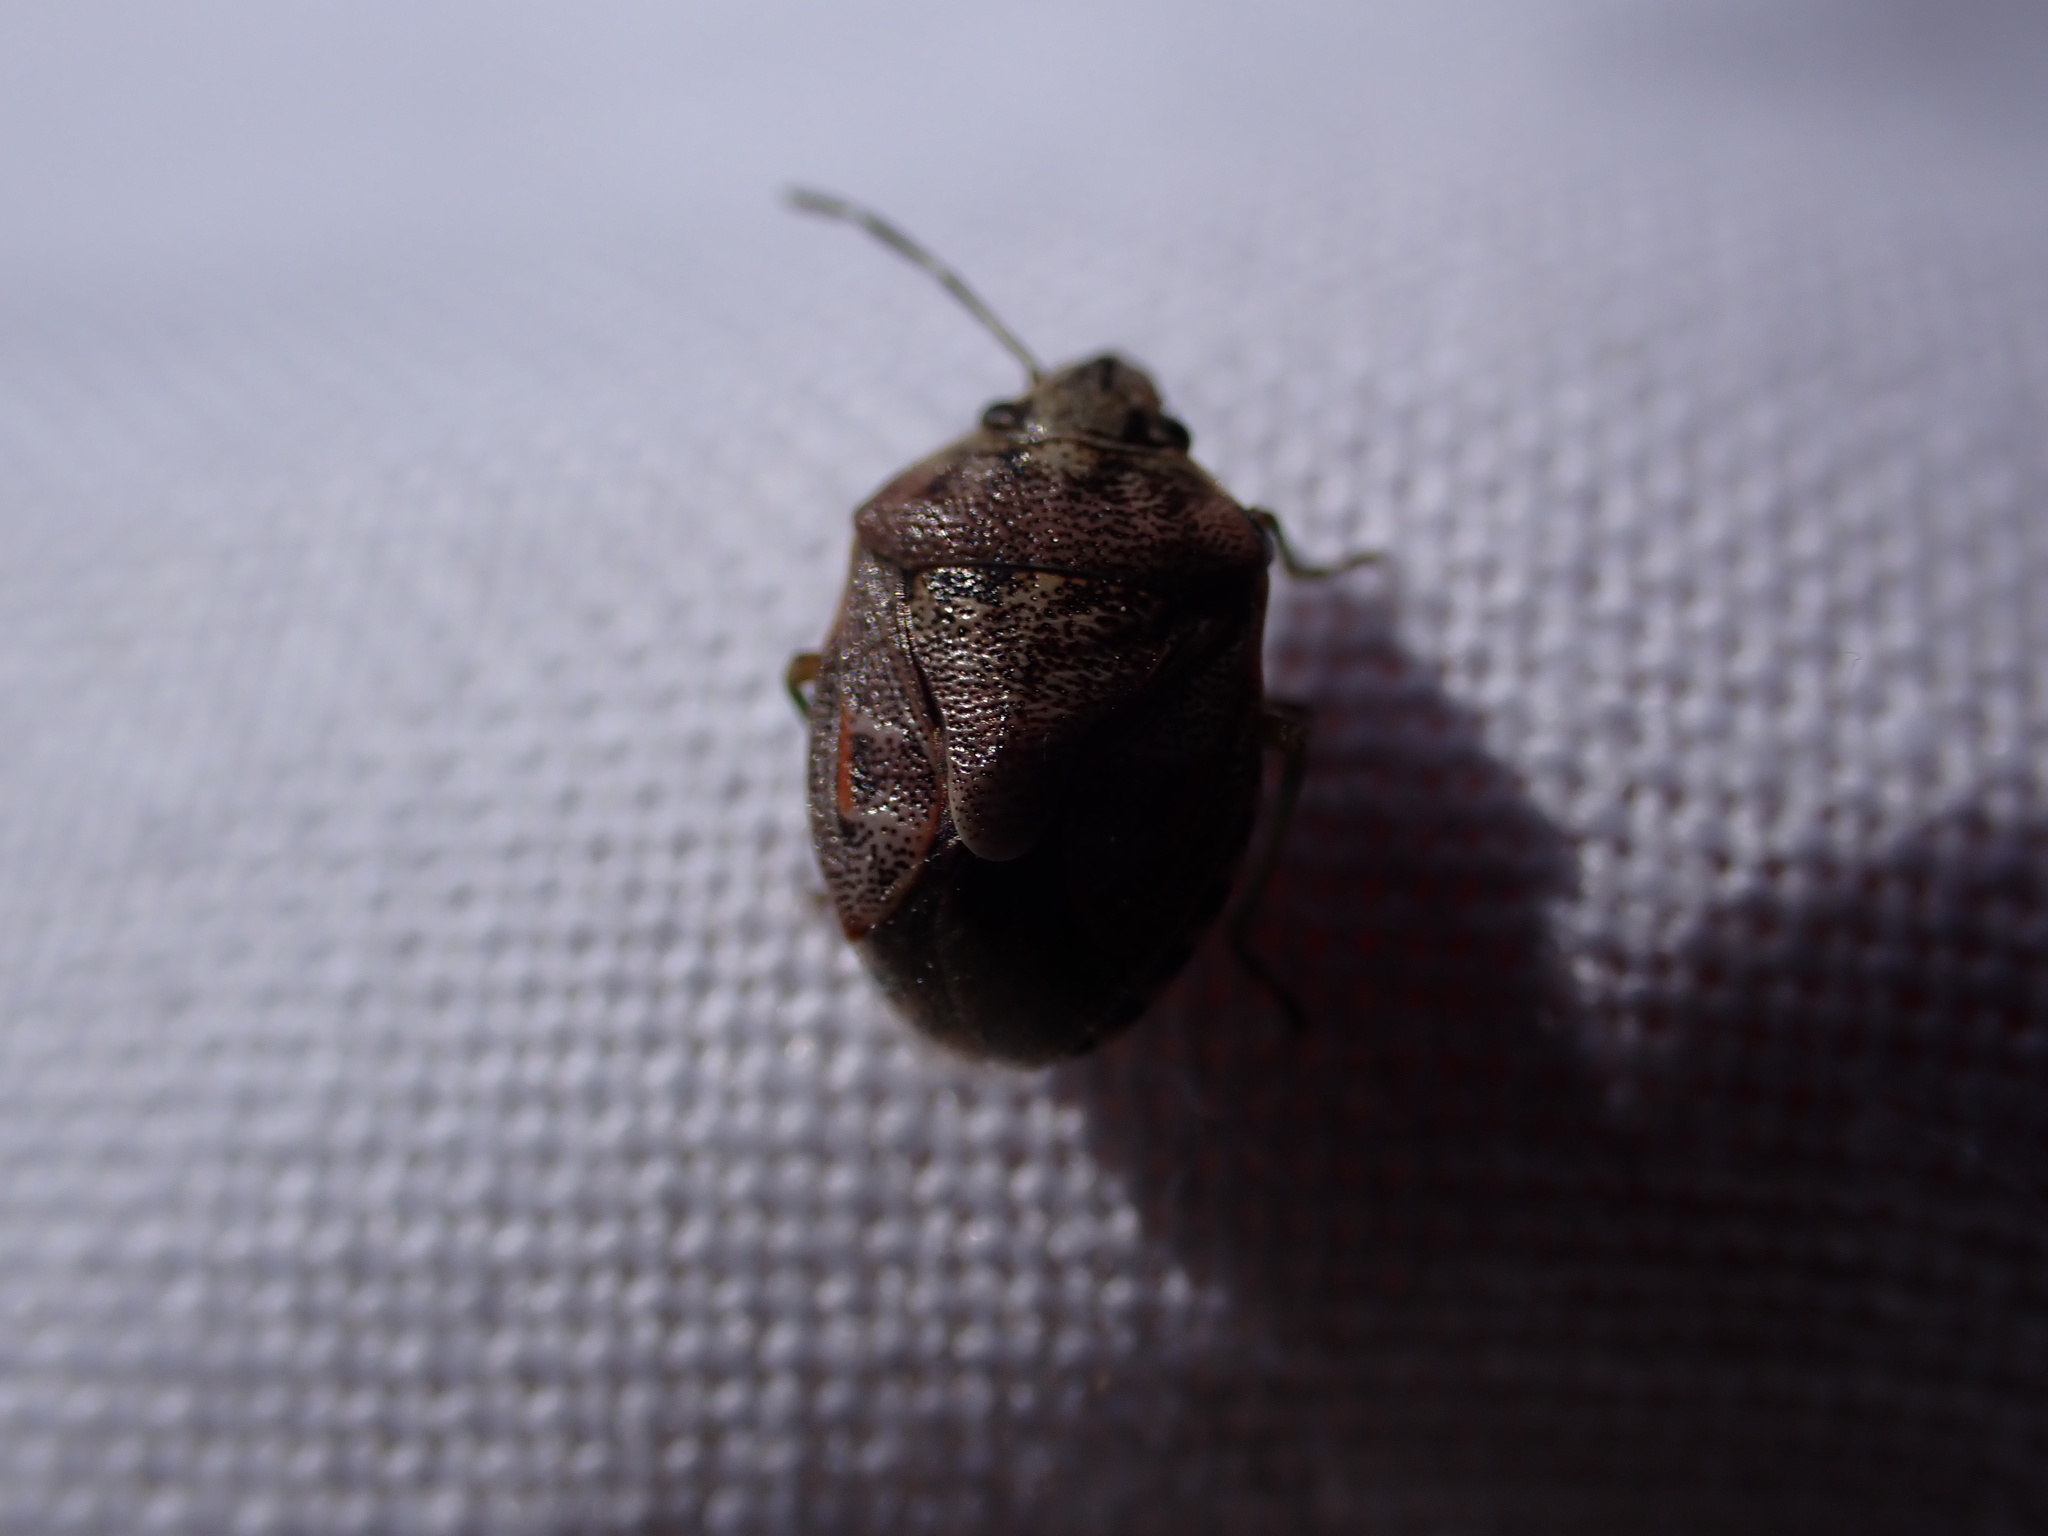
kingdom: Animalia
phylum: Arthropoda
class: Insecta
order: Hemiptera
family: Pentatomidae
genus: Holcogaster
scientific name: Holcogaster fibulata
